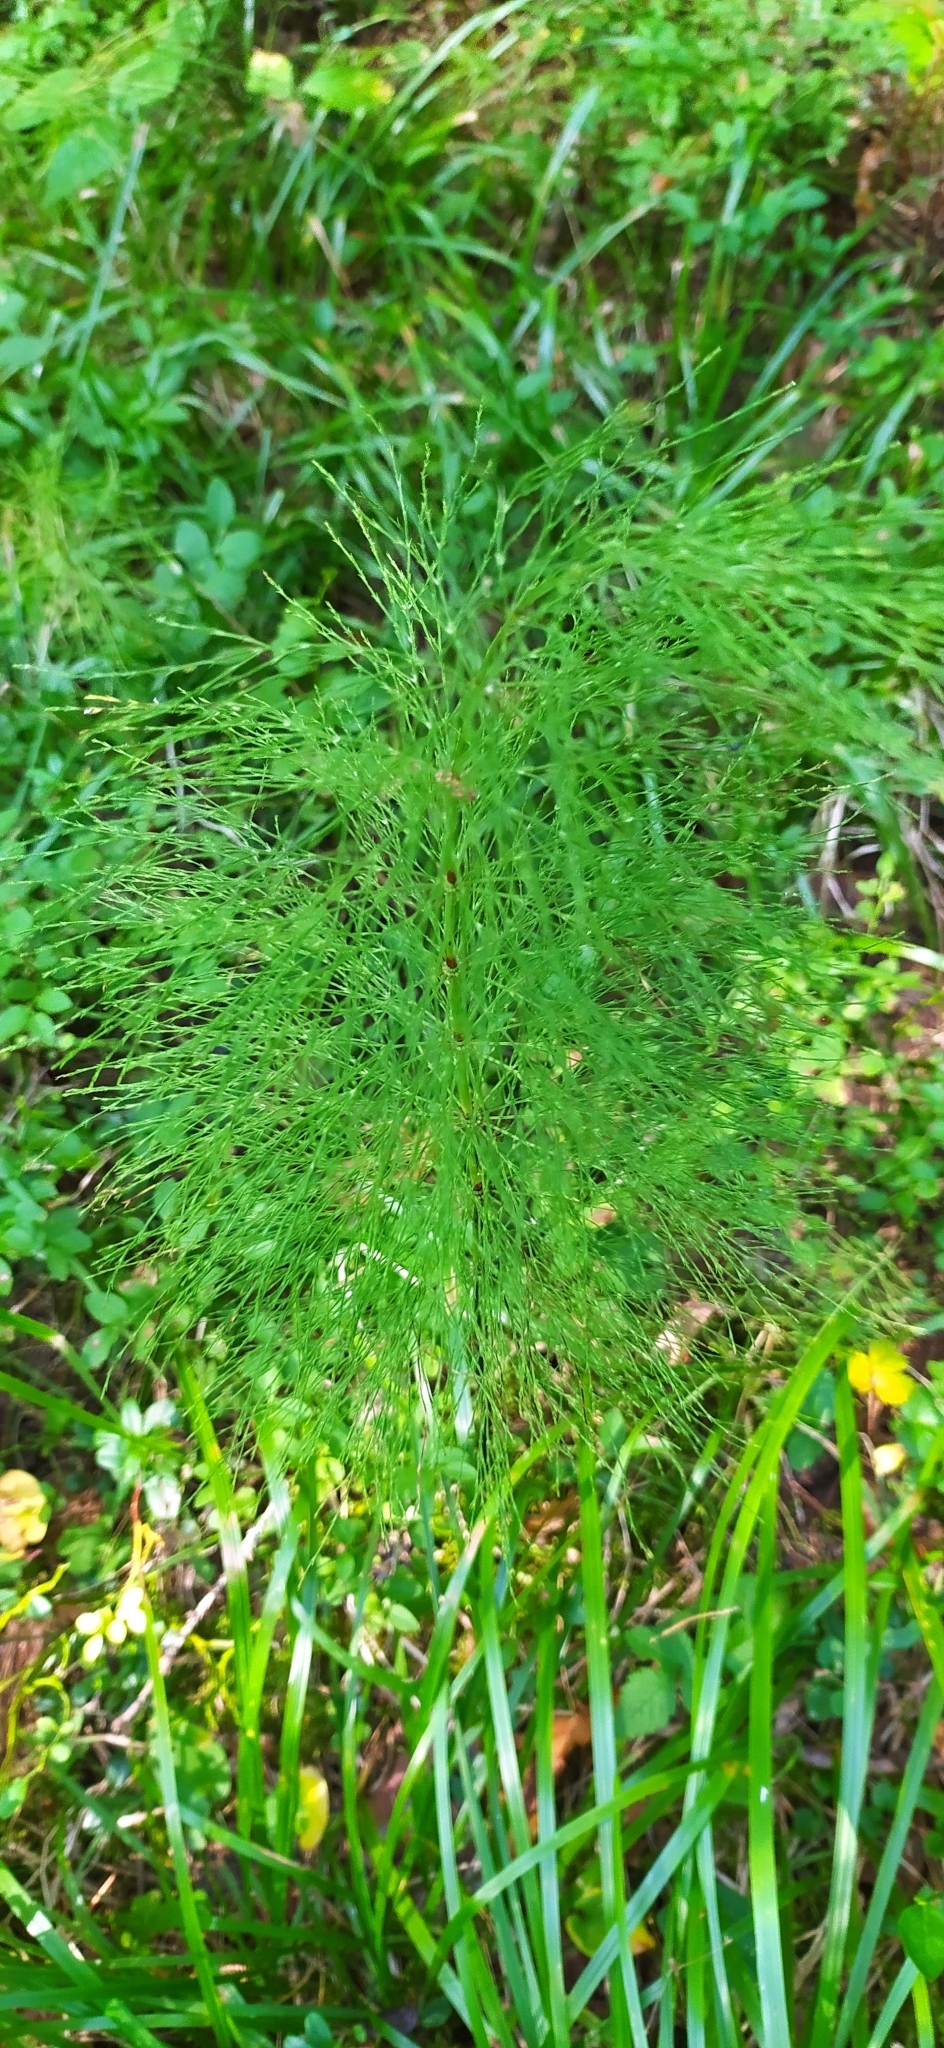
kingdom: Plantae
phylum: Tracheophyta
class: Polypodiopsida
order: Equisetales
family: Equisetaceae
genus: Equisetum
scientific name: Equisetum sylvaticum
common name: Wood horsetail
